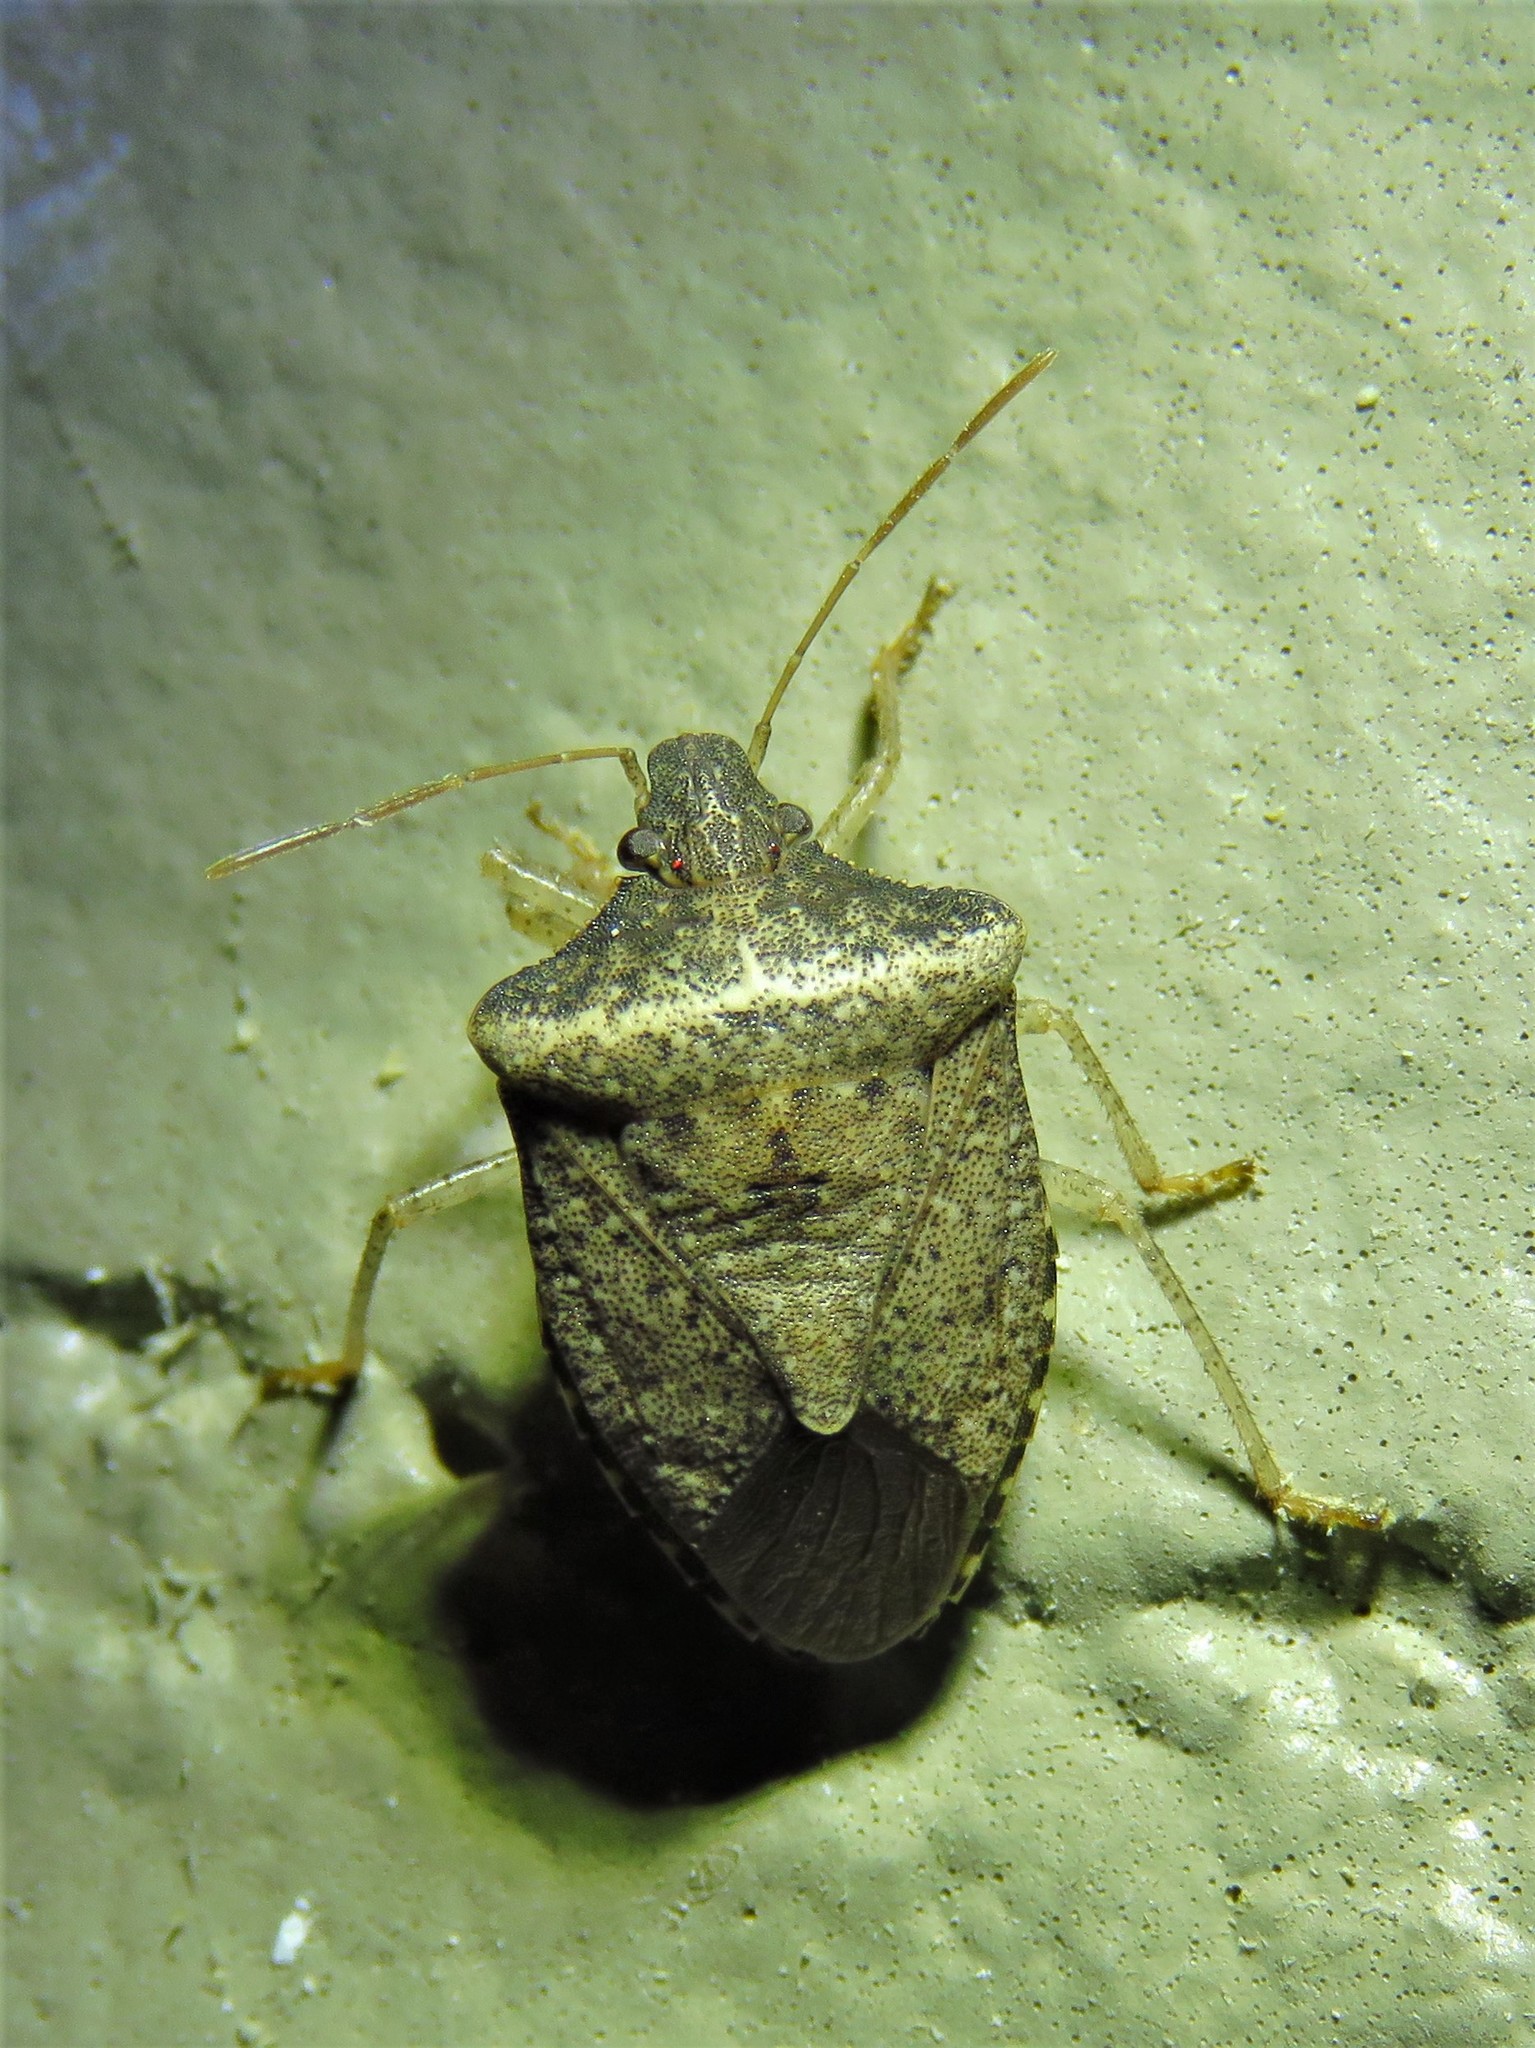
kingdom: Animalia
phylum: Arthropoda
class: Insecta
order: Hemiptera
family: Pentatomidae
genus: Euschistus
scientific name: Euschistus obscurus
